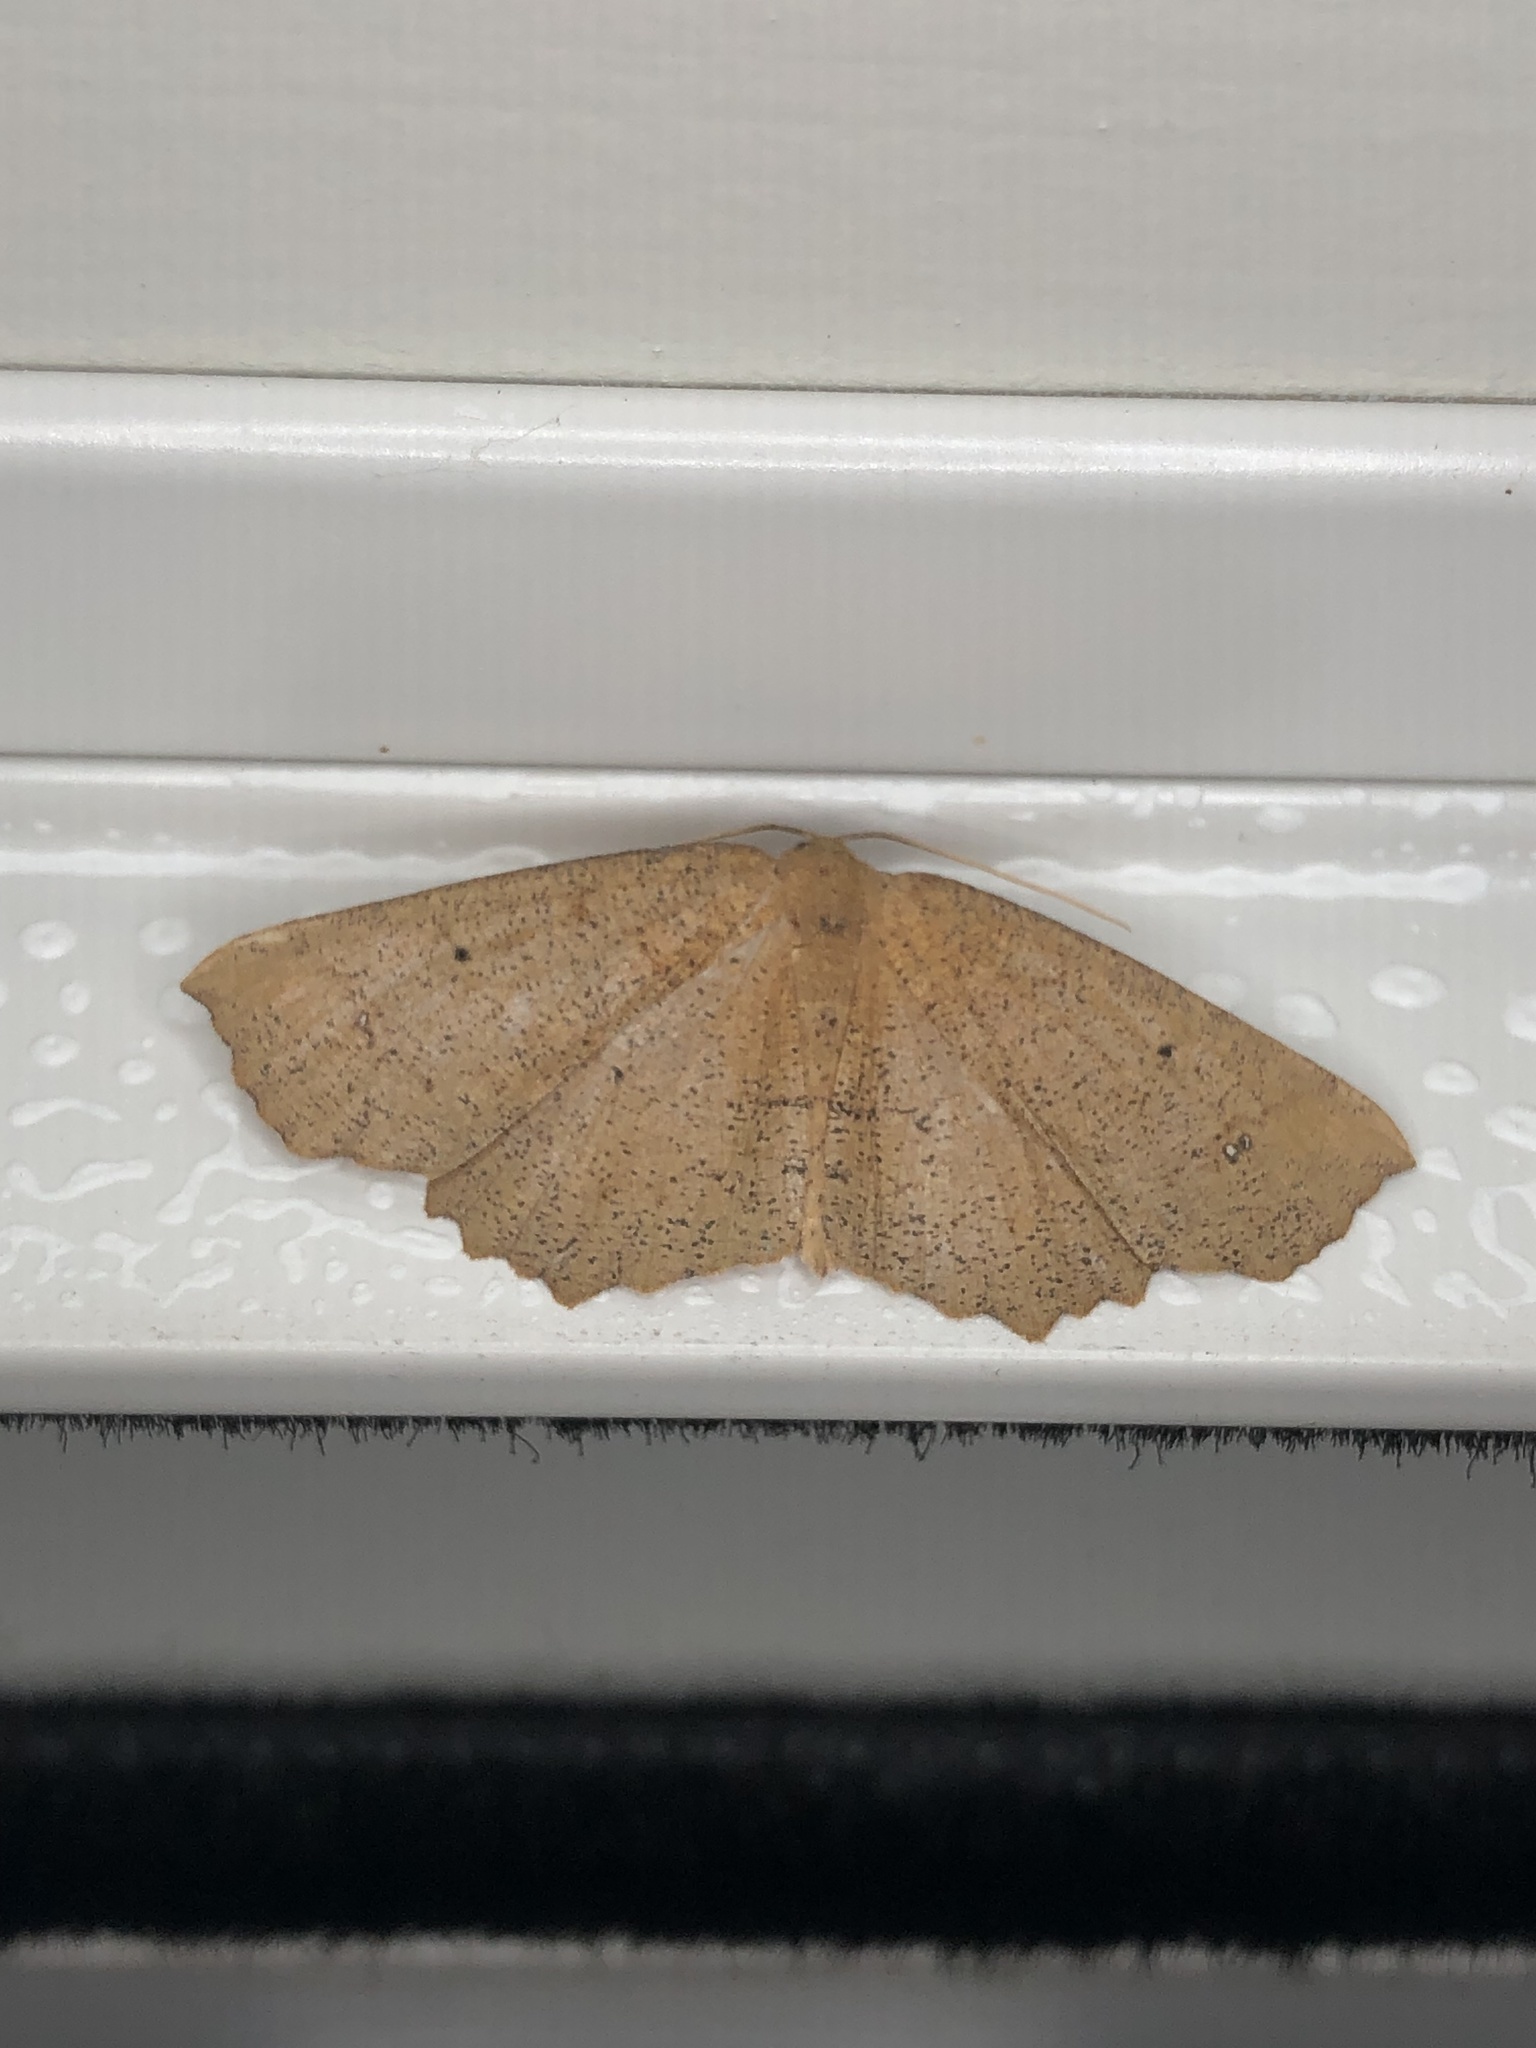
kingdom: Animalia
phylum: Arthropoda
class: Insecta
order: Lepidoptera
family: Geometridae
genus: Xyridacma
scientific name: Xyridacma ustaria
